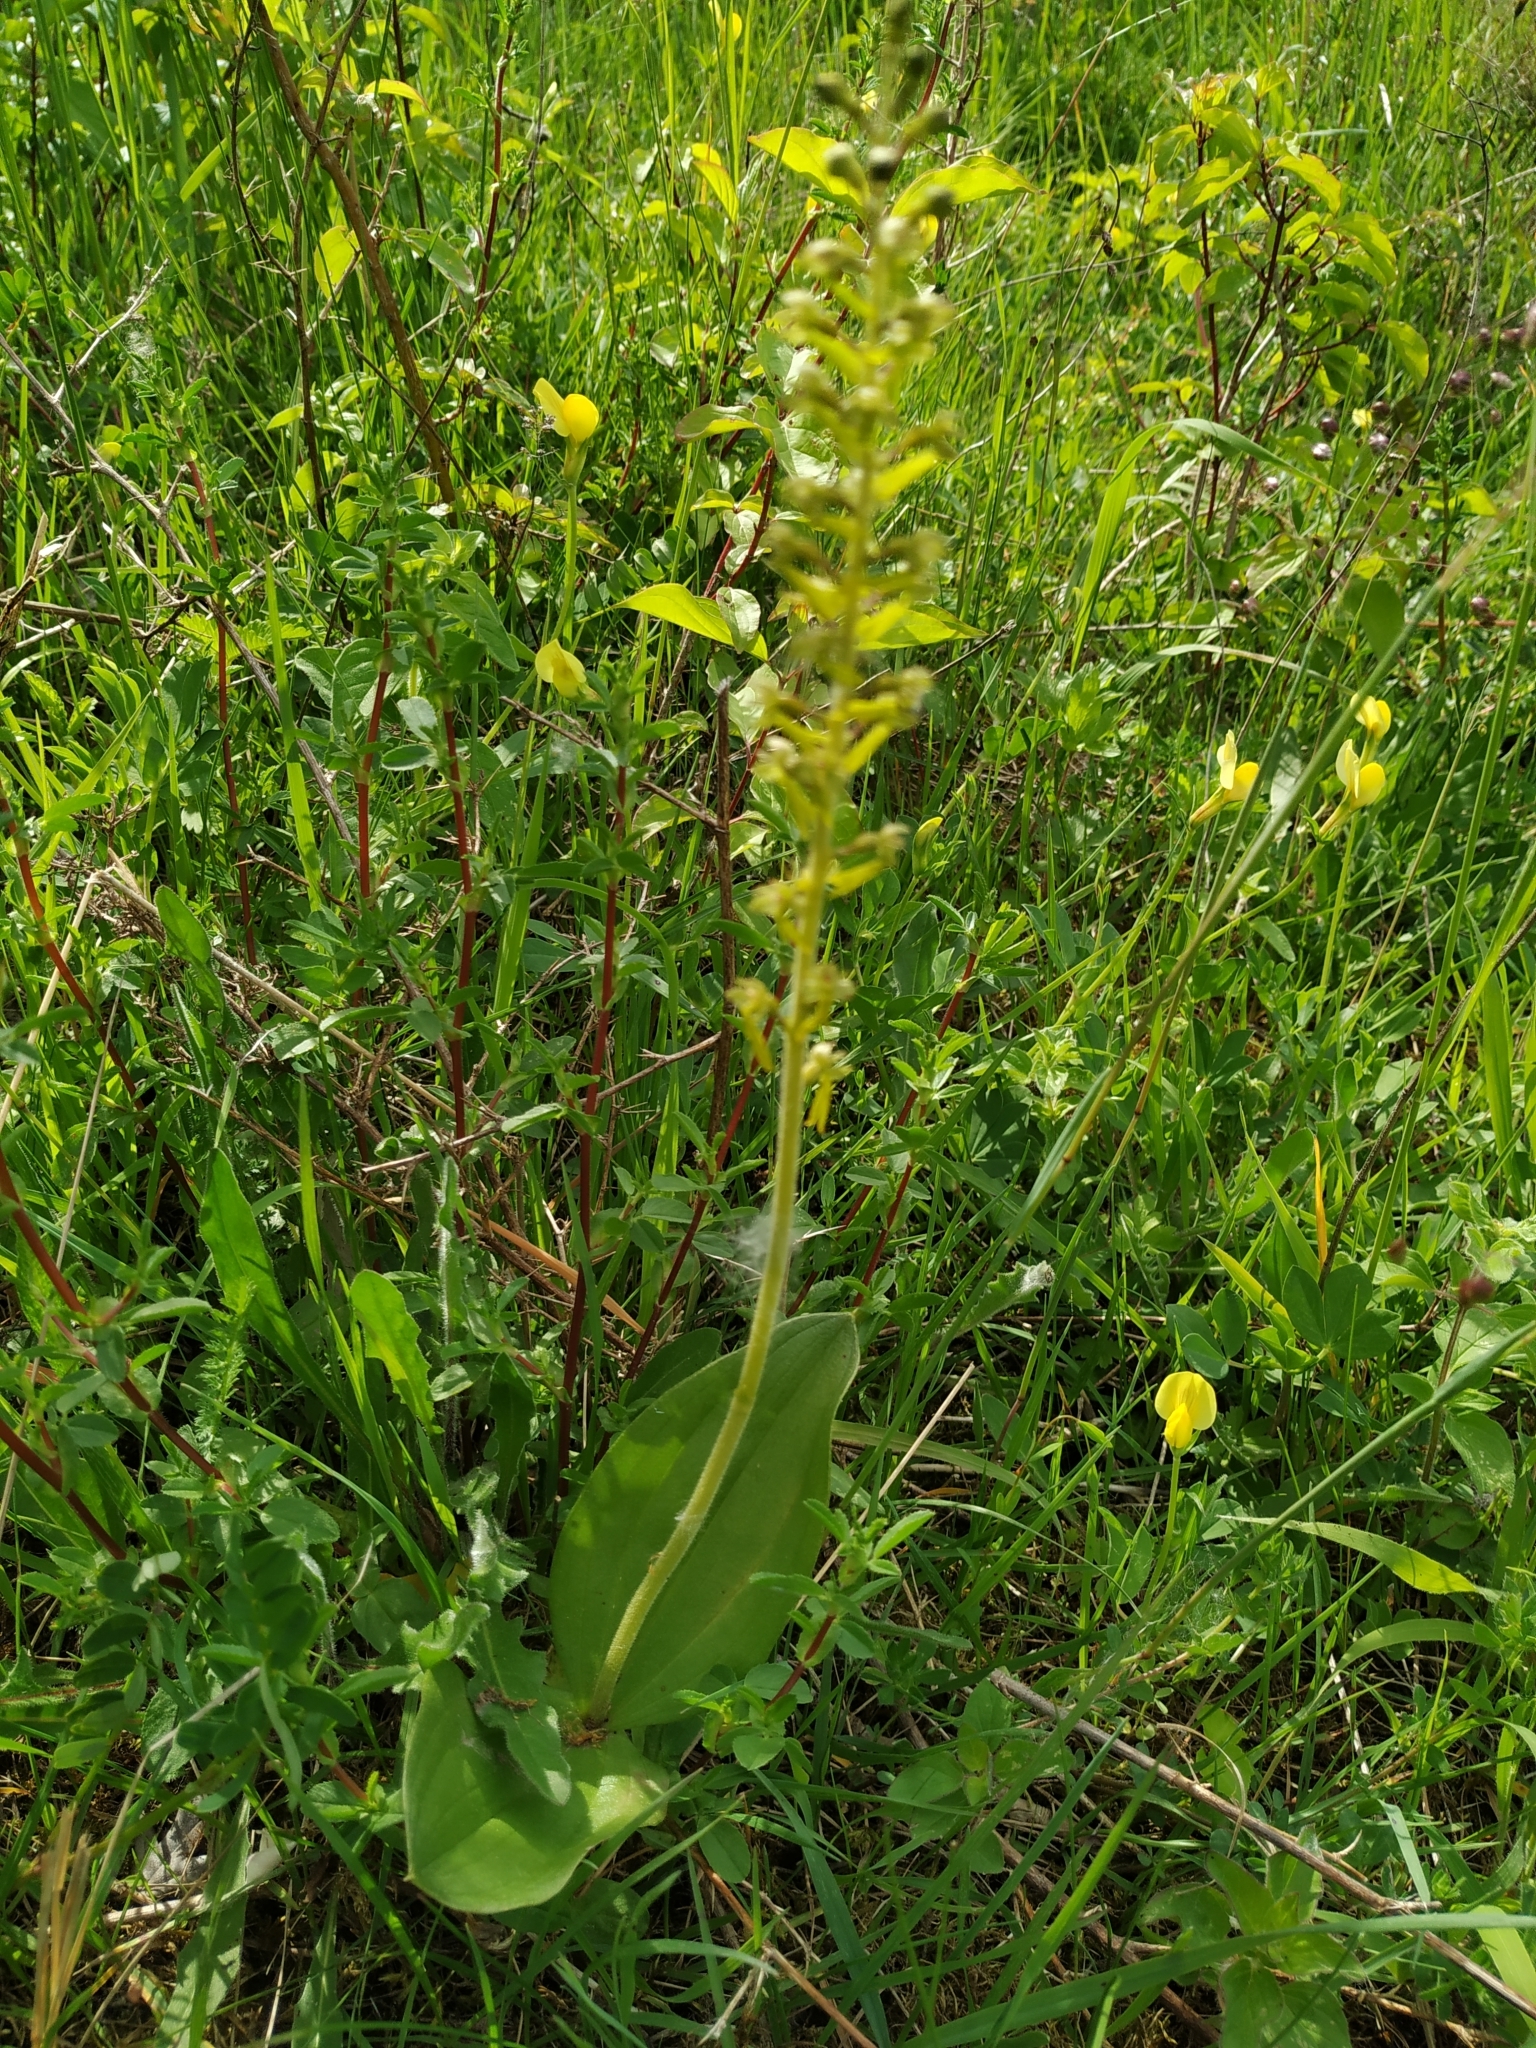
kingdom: Plantae
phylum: Tracheophyta
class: Liliopsida
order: Asparagales
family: Orchidaceae
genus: Neottia
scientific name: Neottia ovata
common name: Common twayblade
